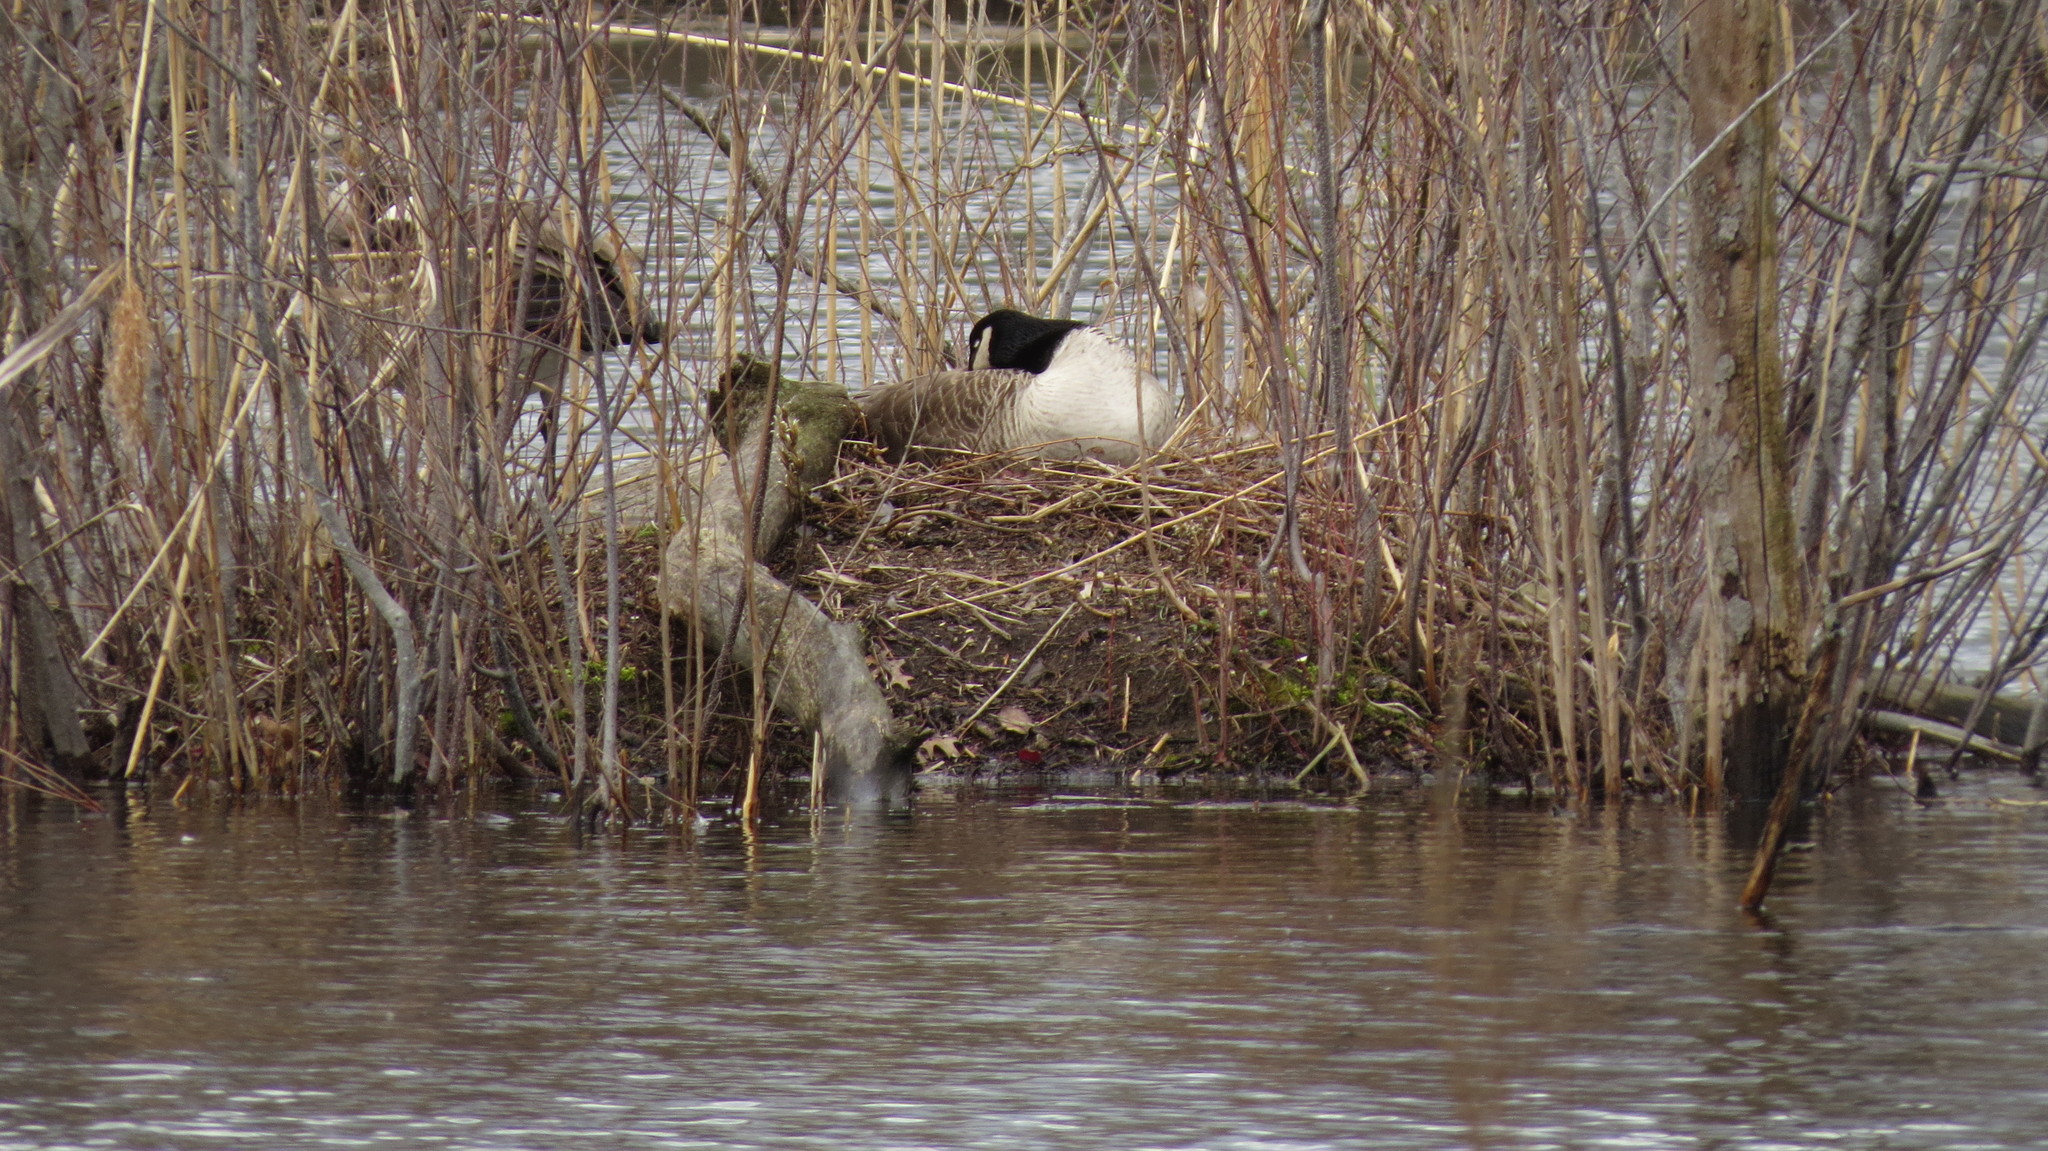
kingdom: Animalia
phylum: Chordata
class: Aves
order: Anseriformes
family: Anatidae
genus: Branta
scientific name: Branta canadensis
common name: Canada goose
